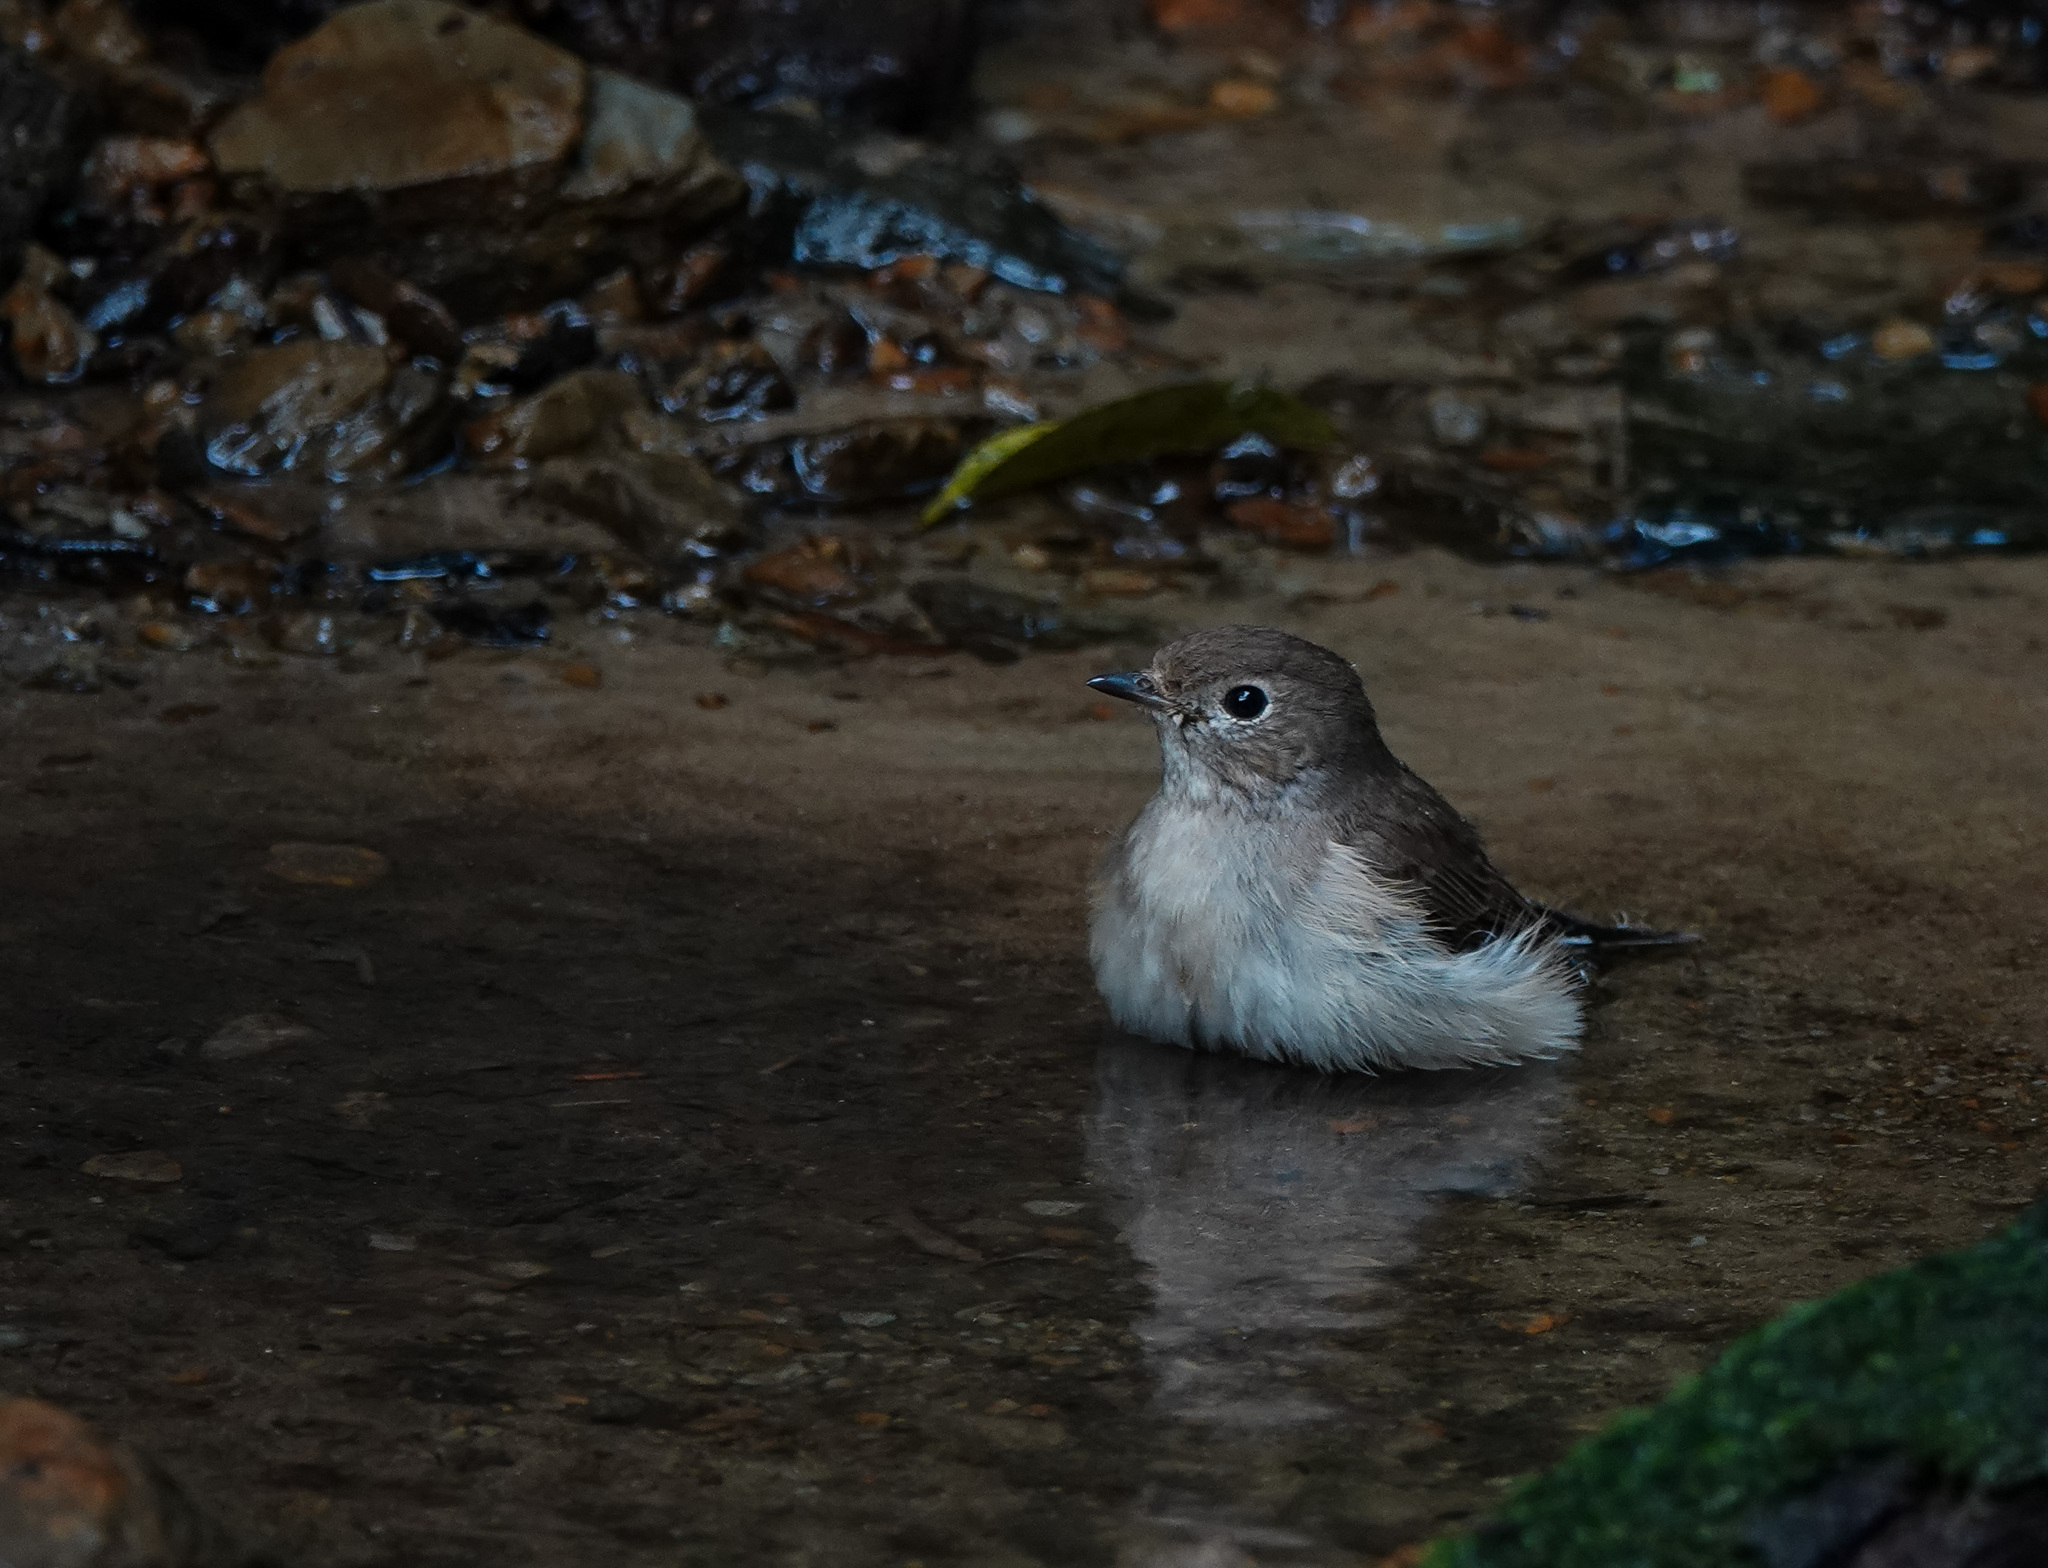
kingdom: Animalia
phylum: Chordata
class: Aves
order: Passeriformes
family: Muscicapidae
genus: Ficedula
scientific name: Ficedula albicilla
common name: Taiga flycatcher
